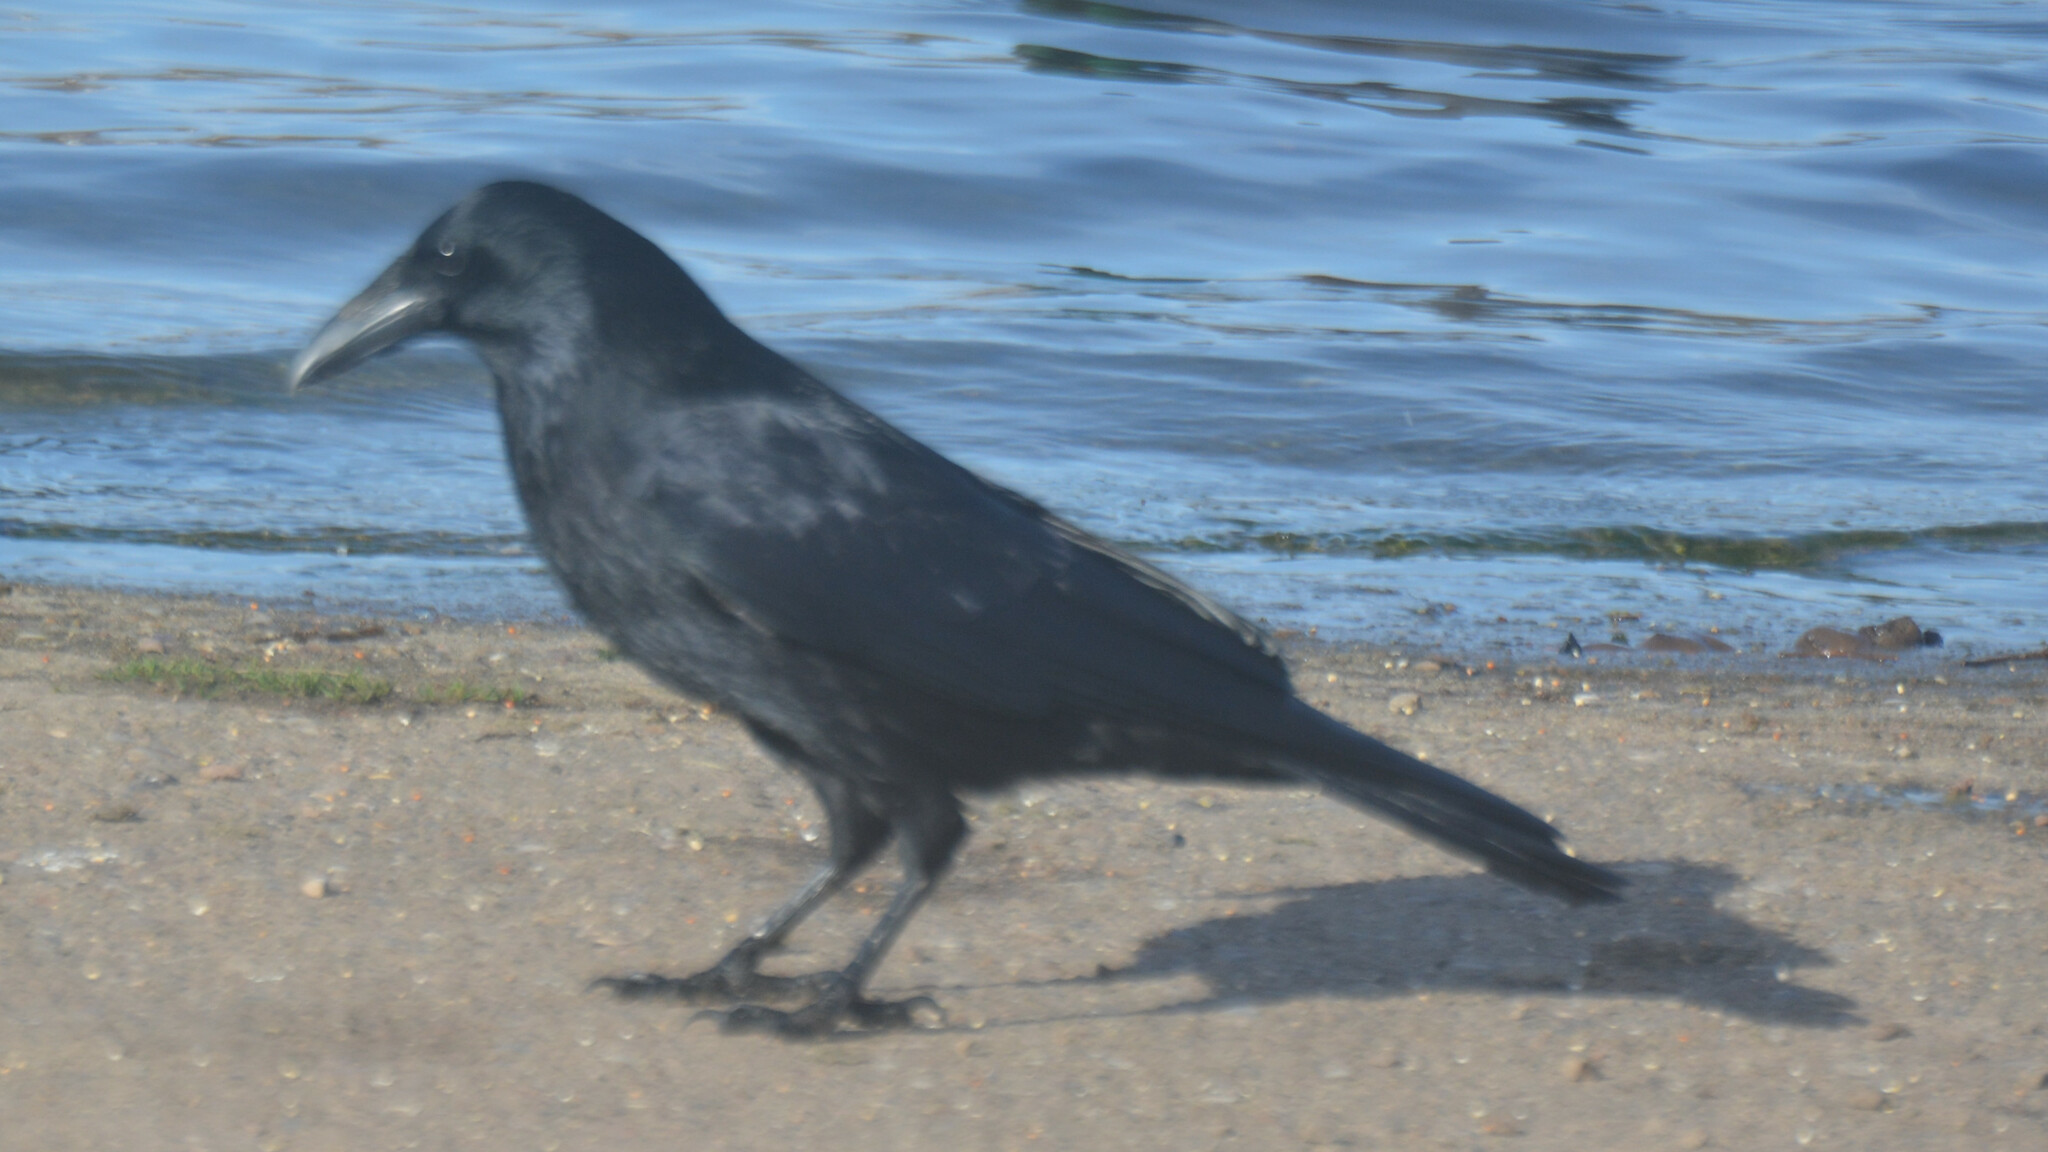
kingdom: Animalia
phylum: Chordata
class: Aves
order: Passeriformes
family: Corvidae
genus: Corvus
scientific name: Corvus corone
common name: Carrion crow
